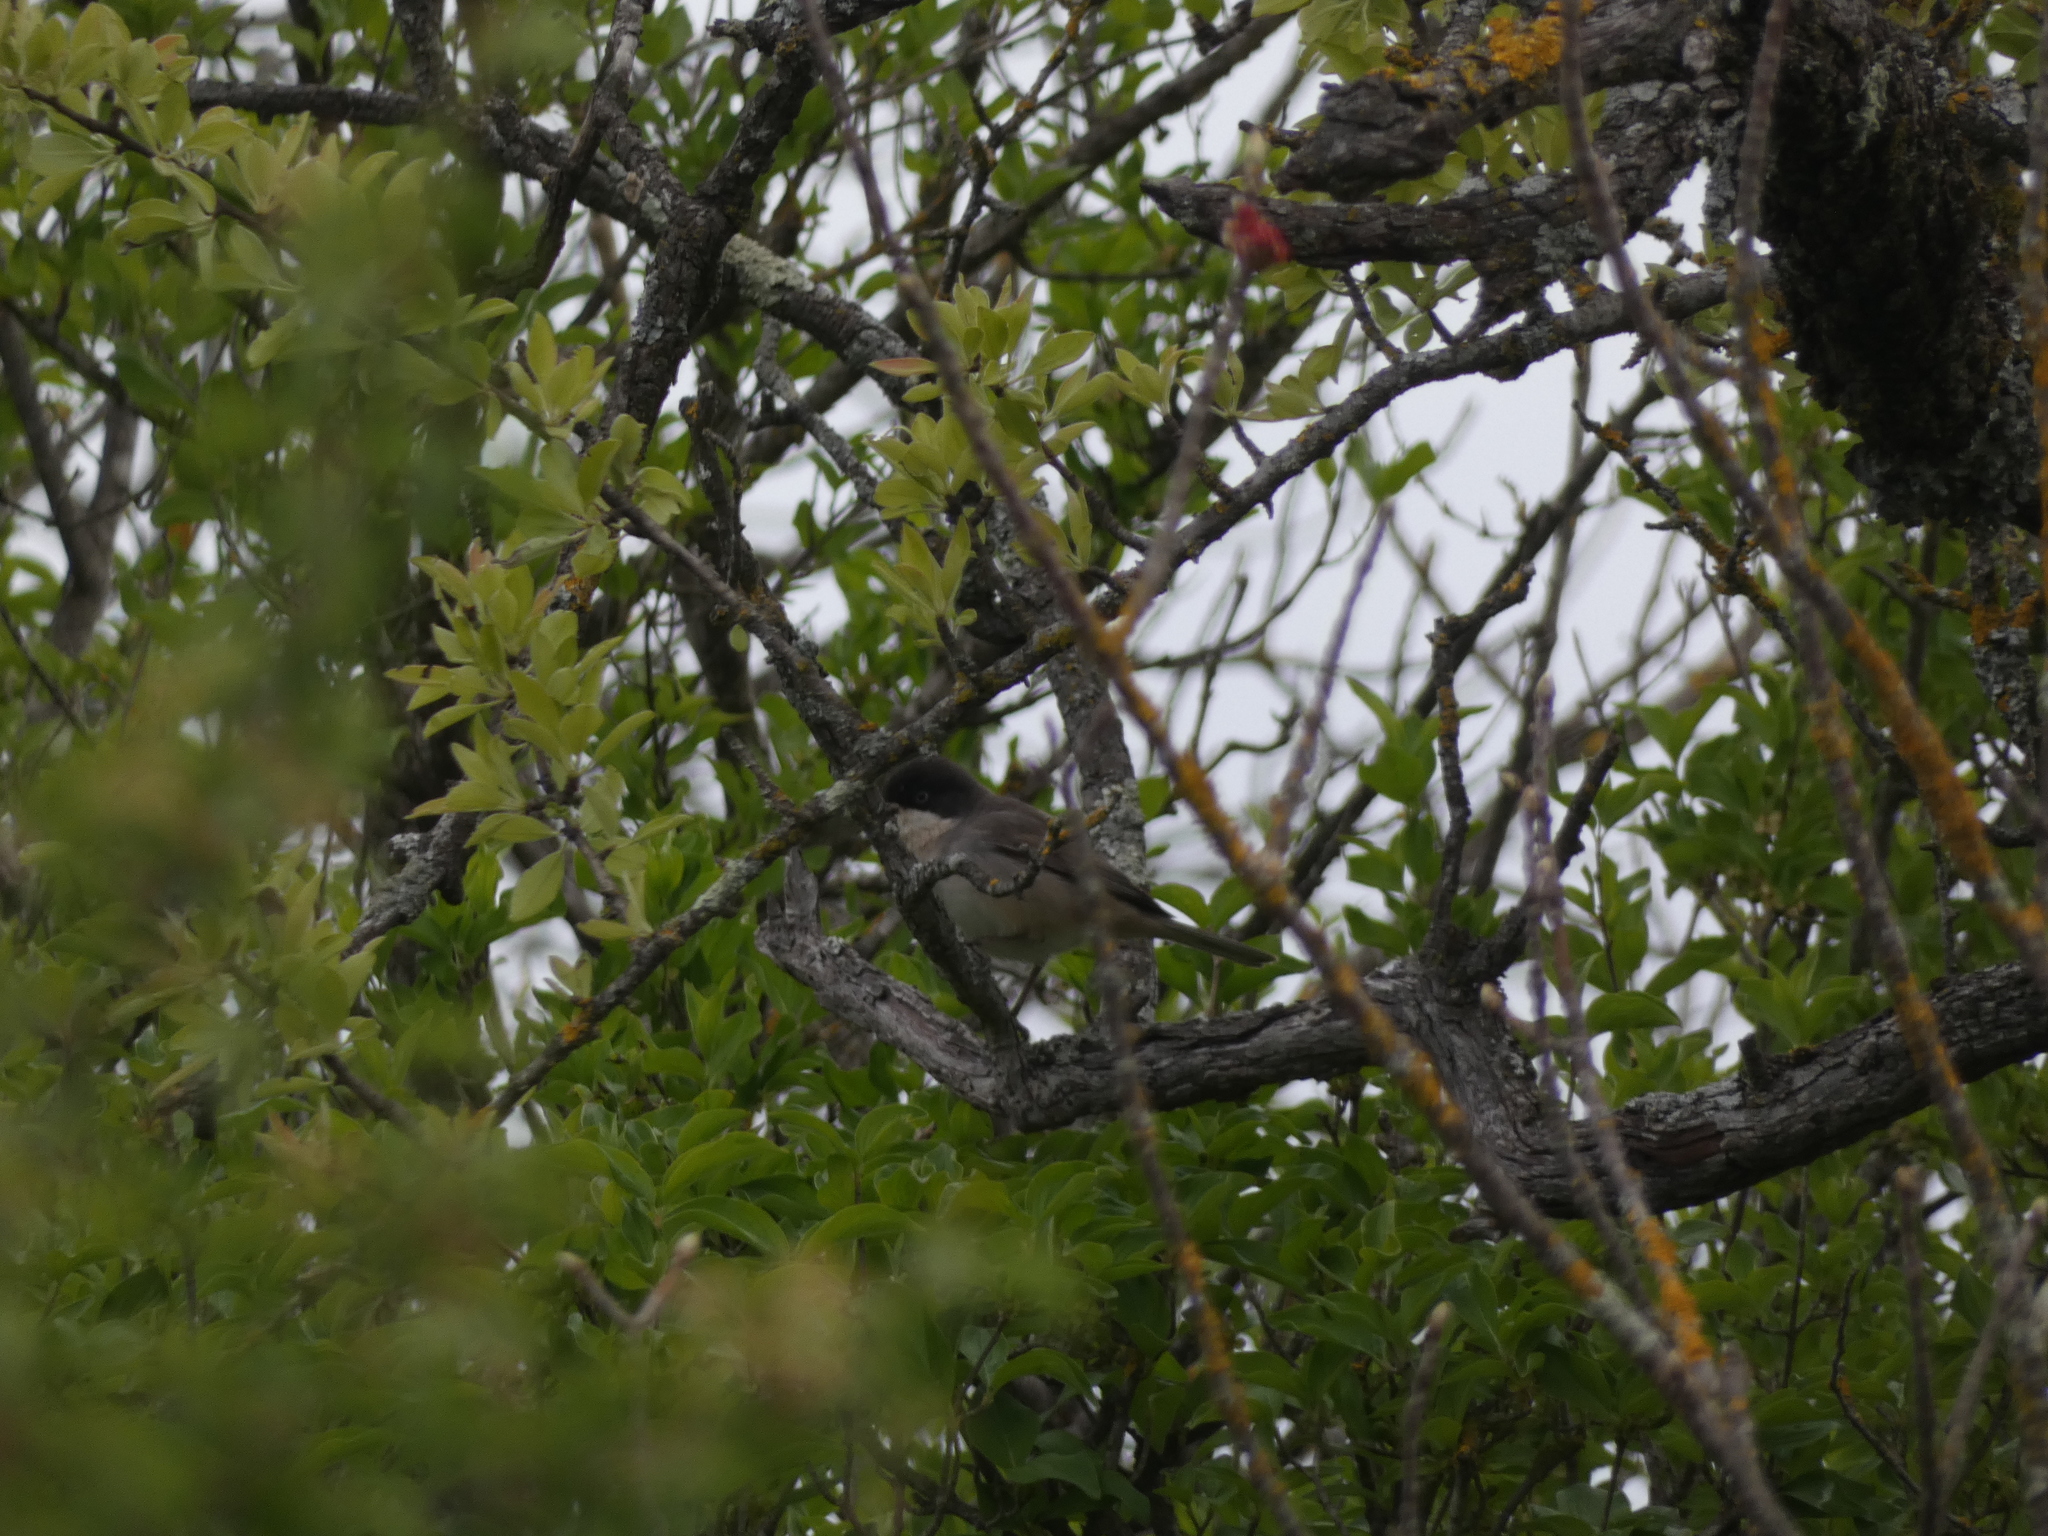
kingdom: Animalia
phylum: Chordata
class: Aves
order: Passeriformes
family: Sylviidae
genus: Sylvia
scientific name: Sylvia hortensis
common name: Orphean warbler
